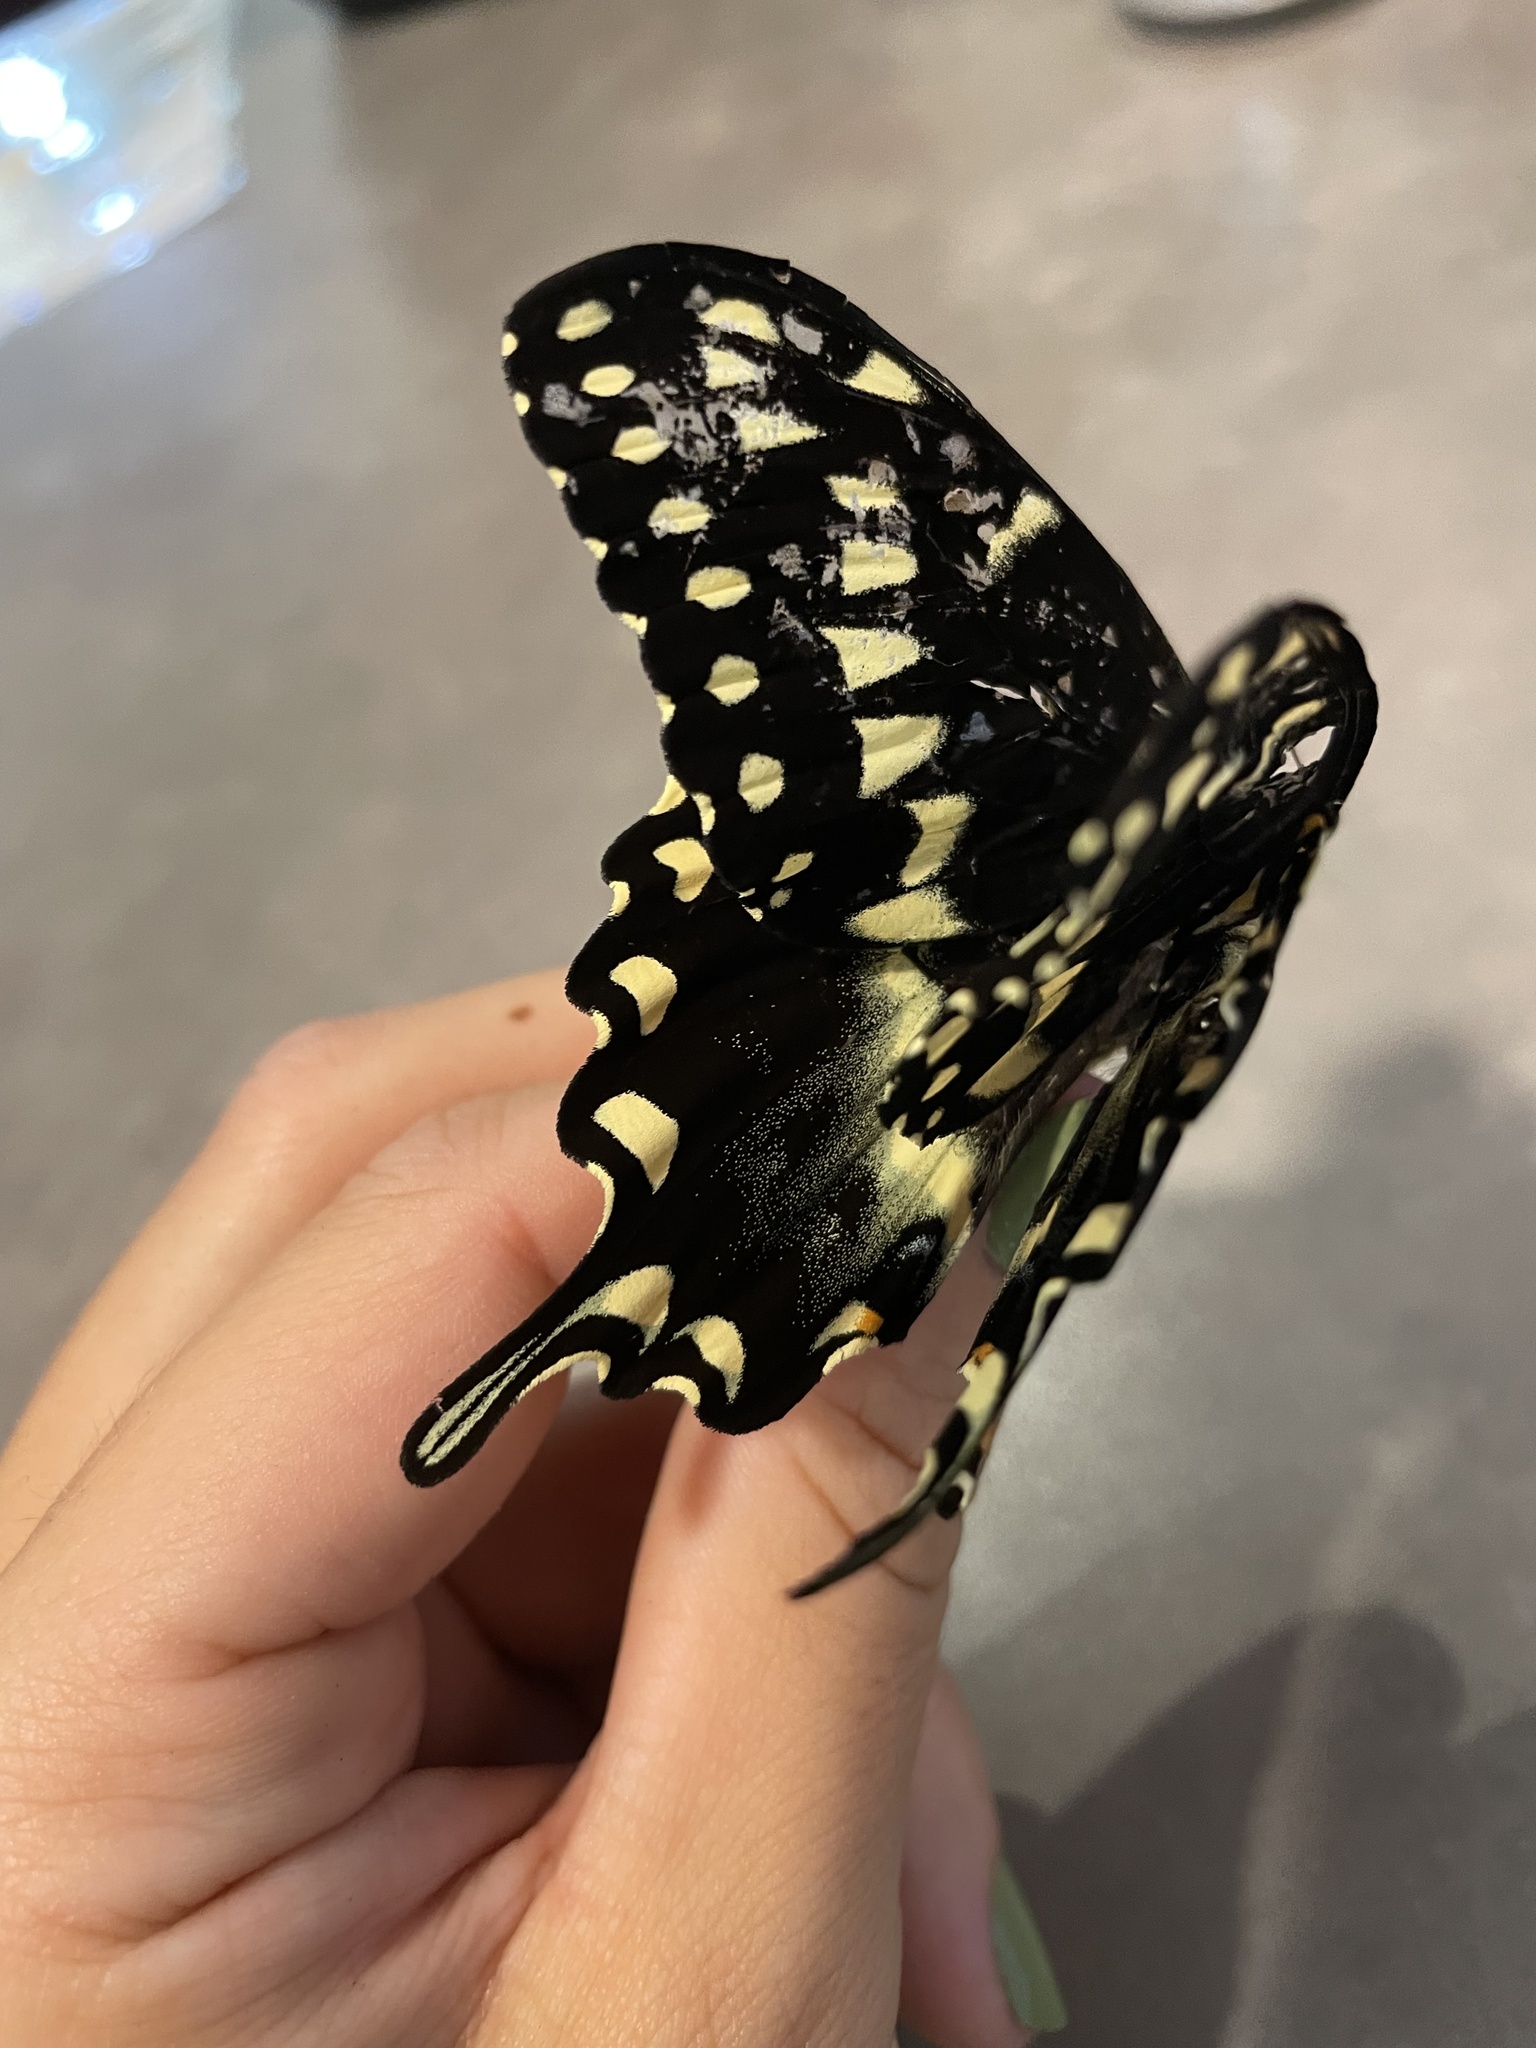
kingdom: Animalia
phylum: Arthropoda
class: Insecta
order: Lepidoptera
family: Papilionidae
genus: Papilio
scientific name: Papilio palamedes
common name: Palamedes swallowtail
